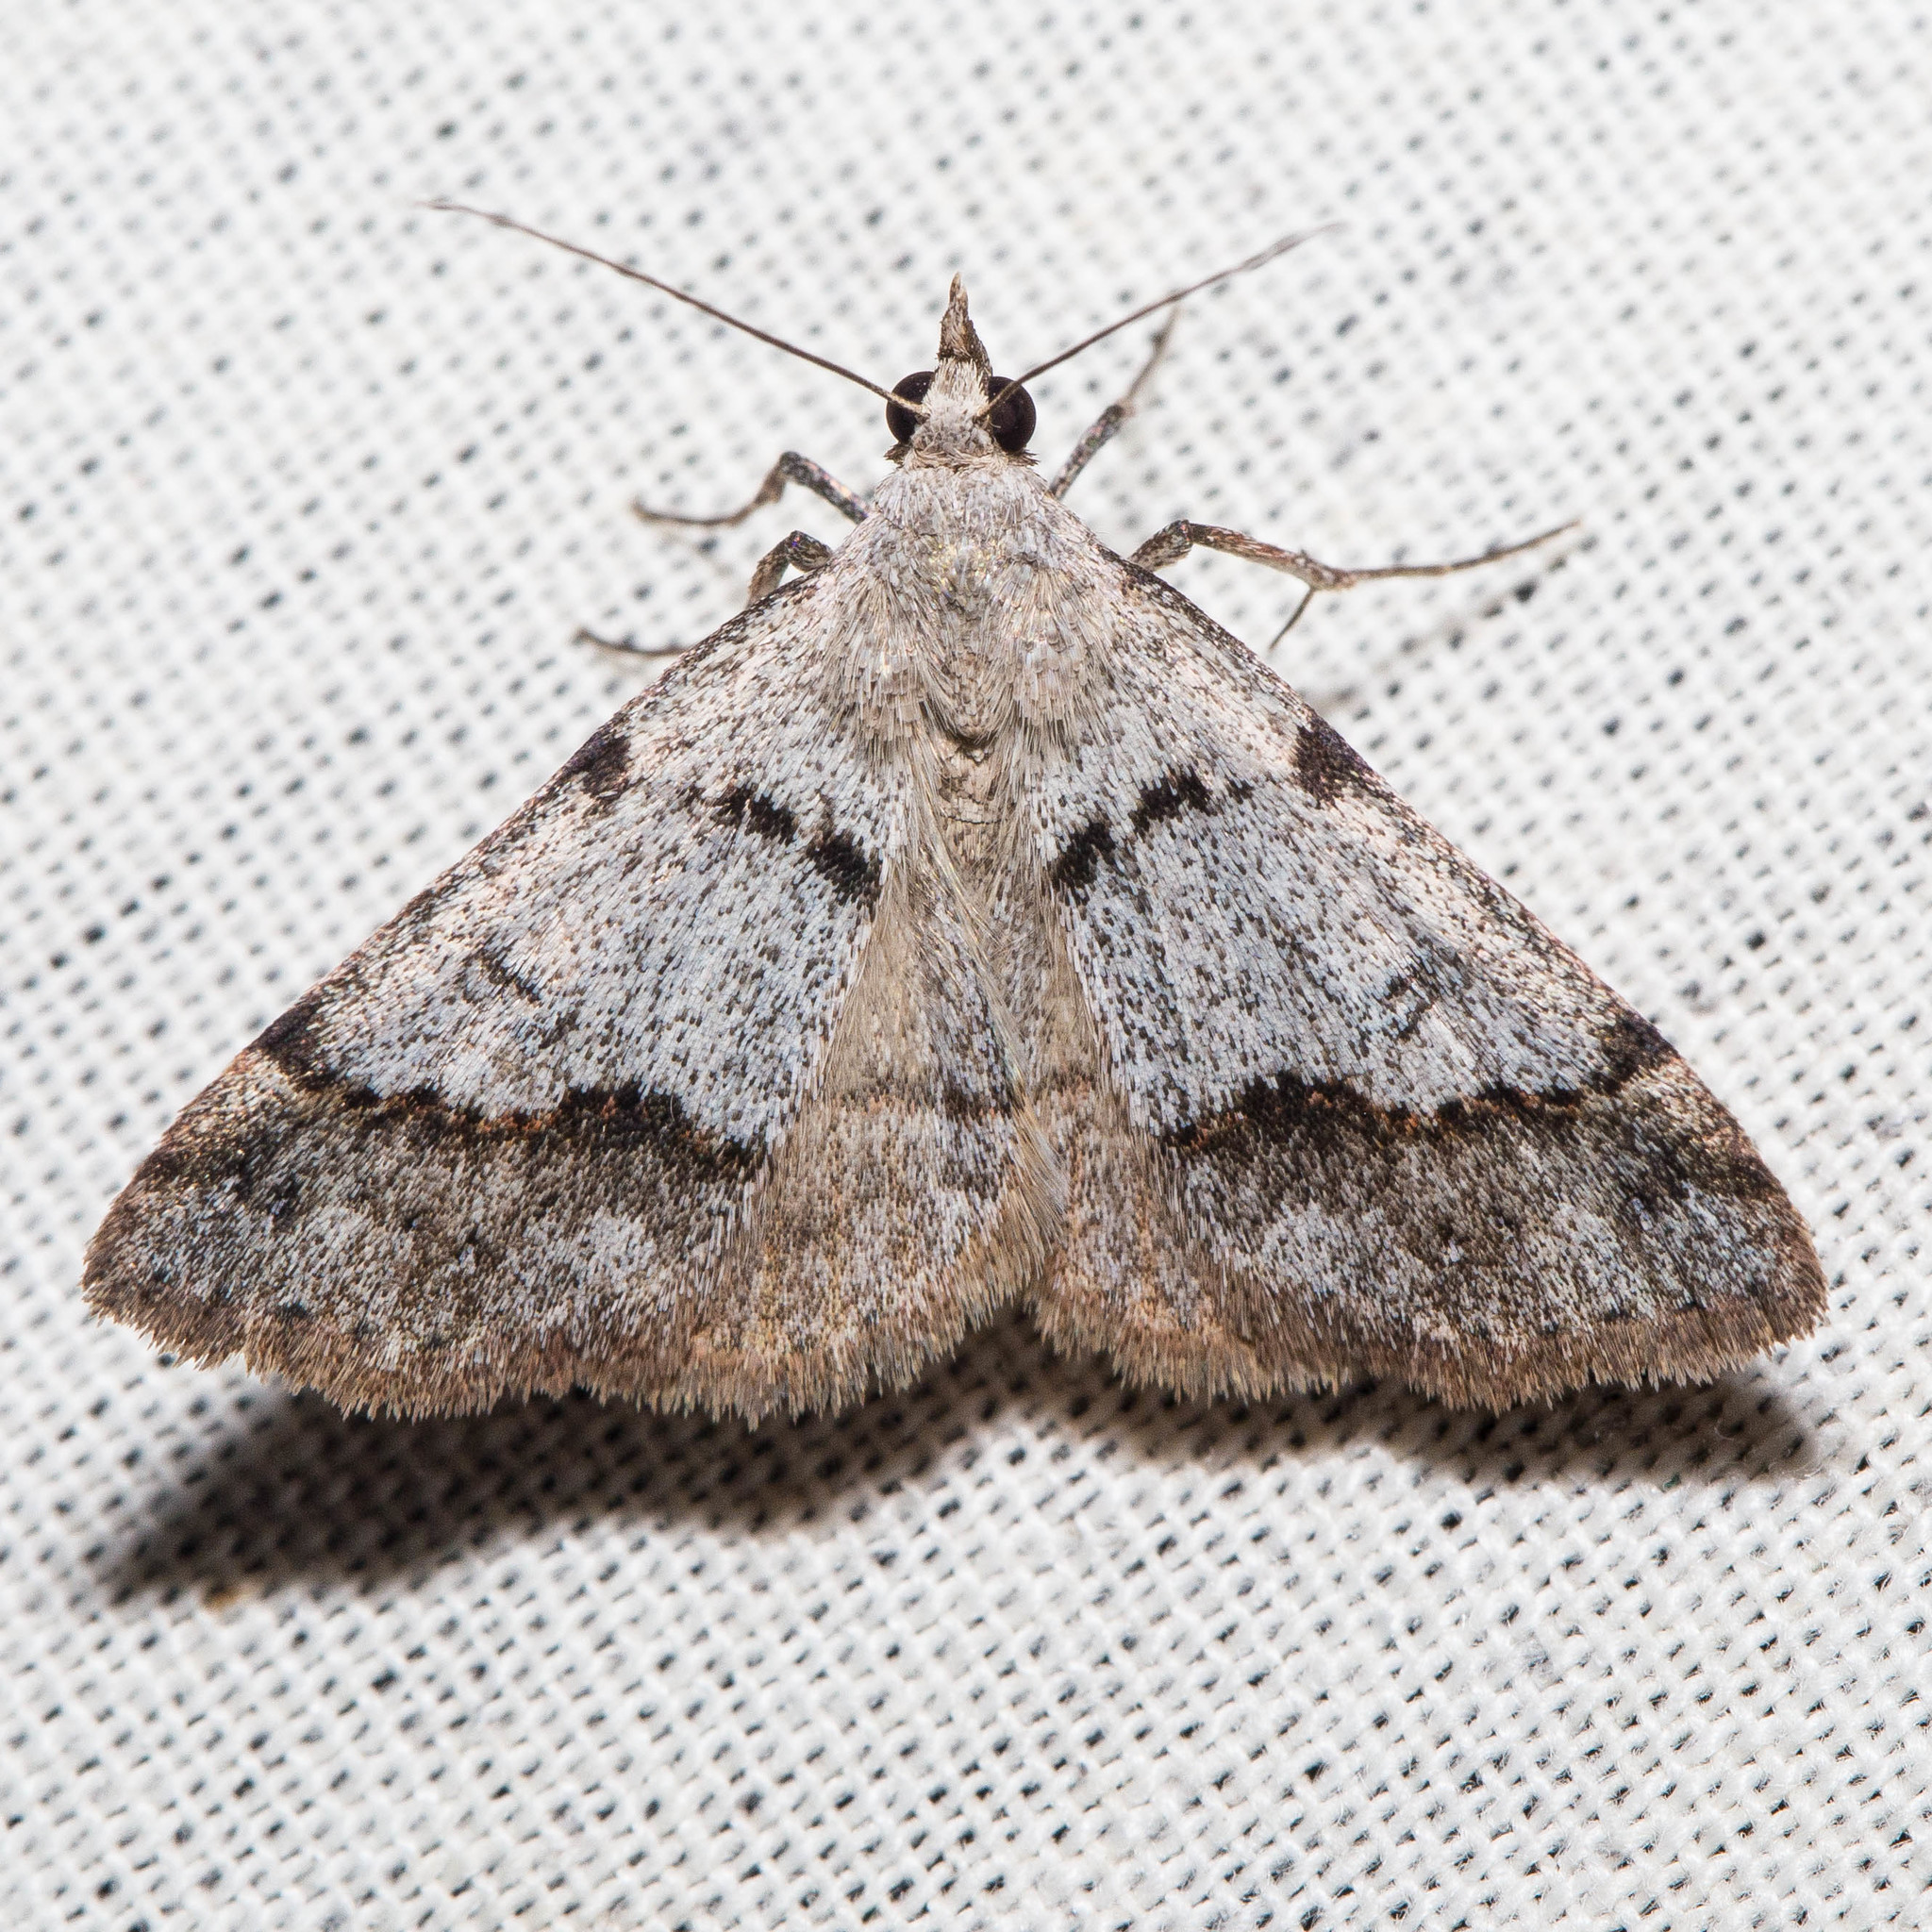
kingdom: Animalia
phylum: Arthropoda
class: Insecta
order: Lepidoptera
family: Erebidae
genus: Hemeroplanis
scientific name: Hemeroplanis historialis
